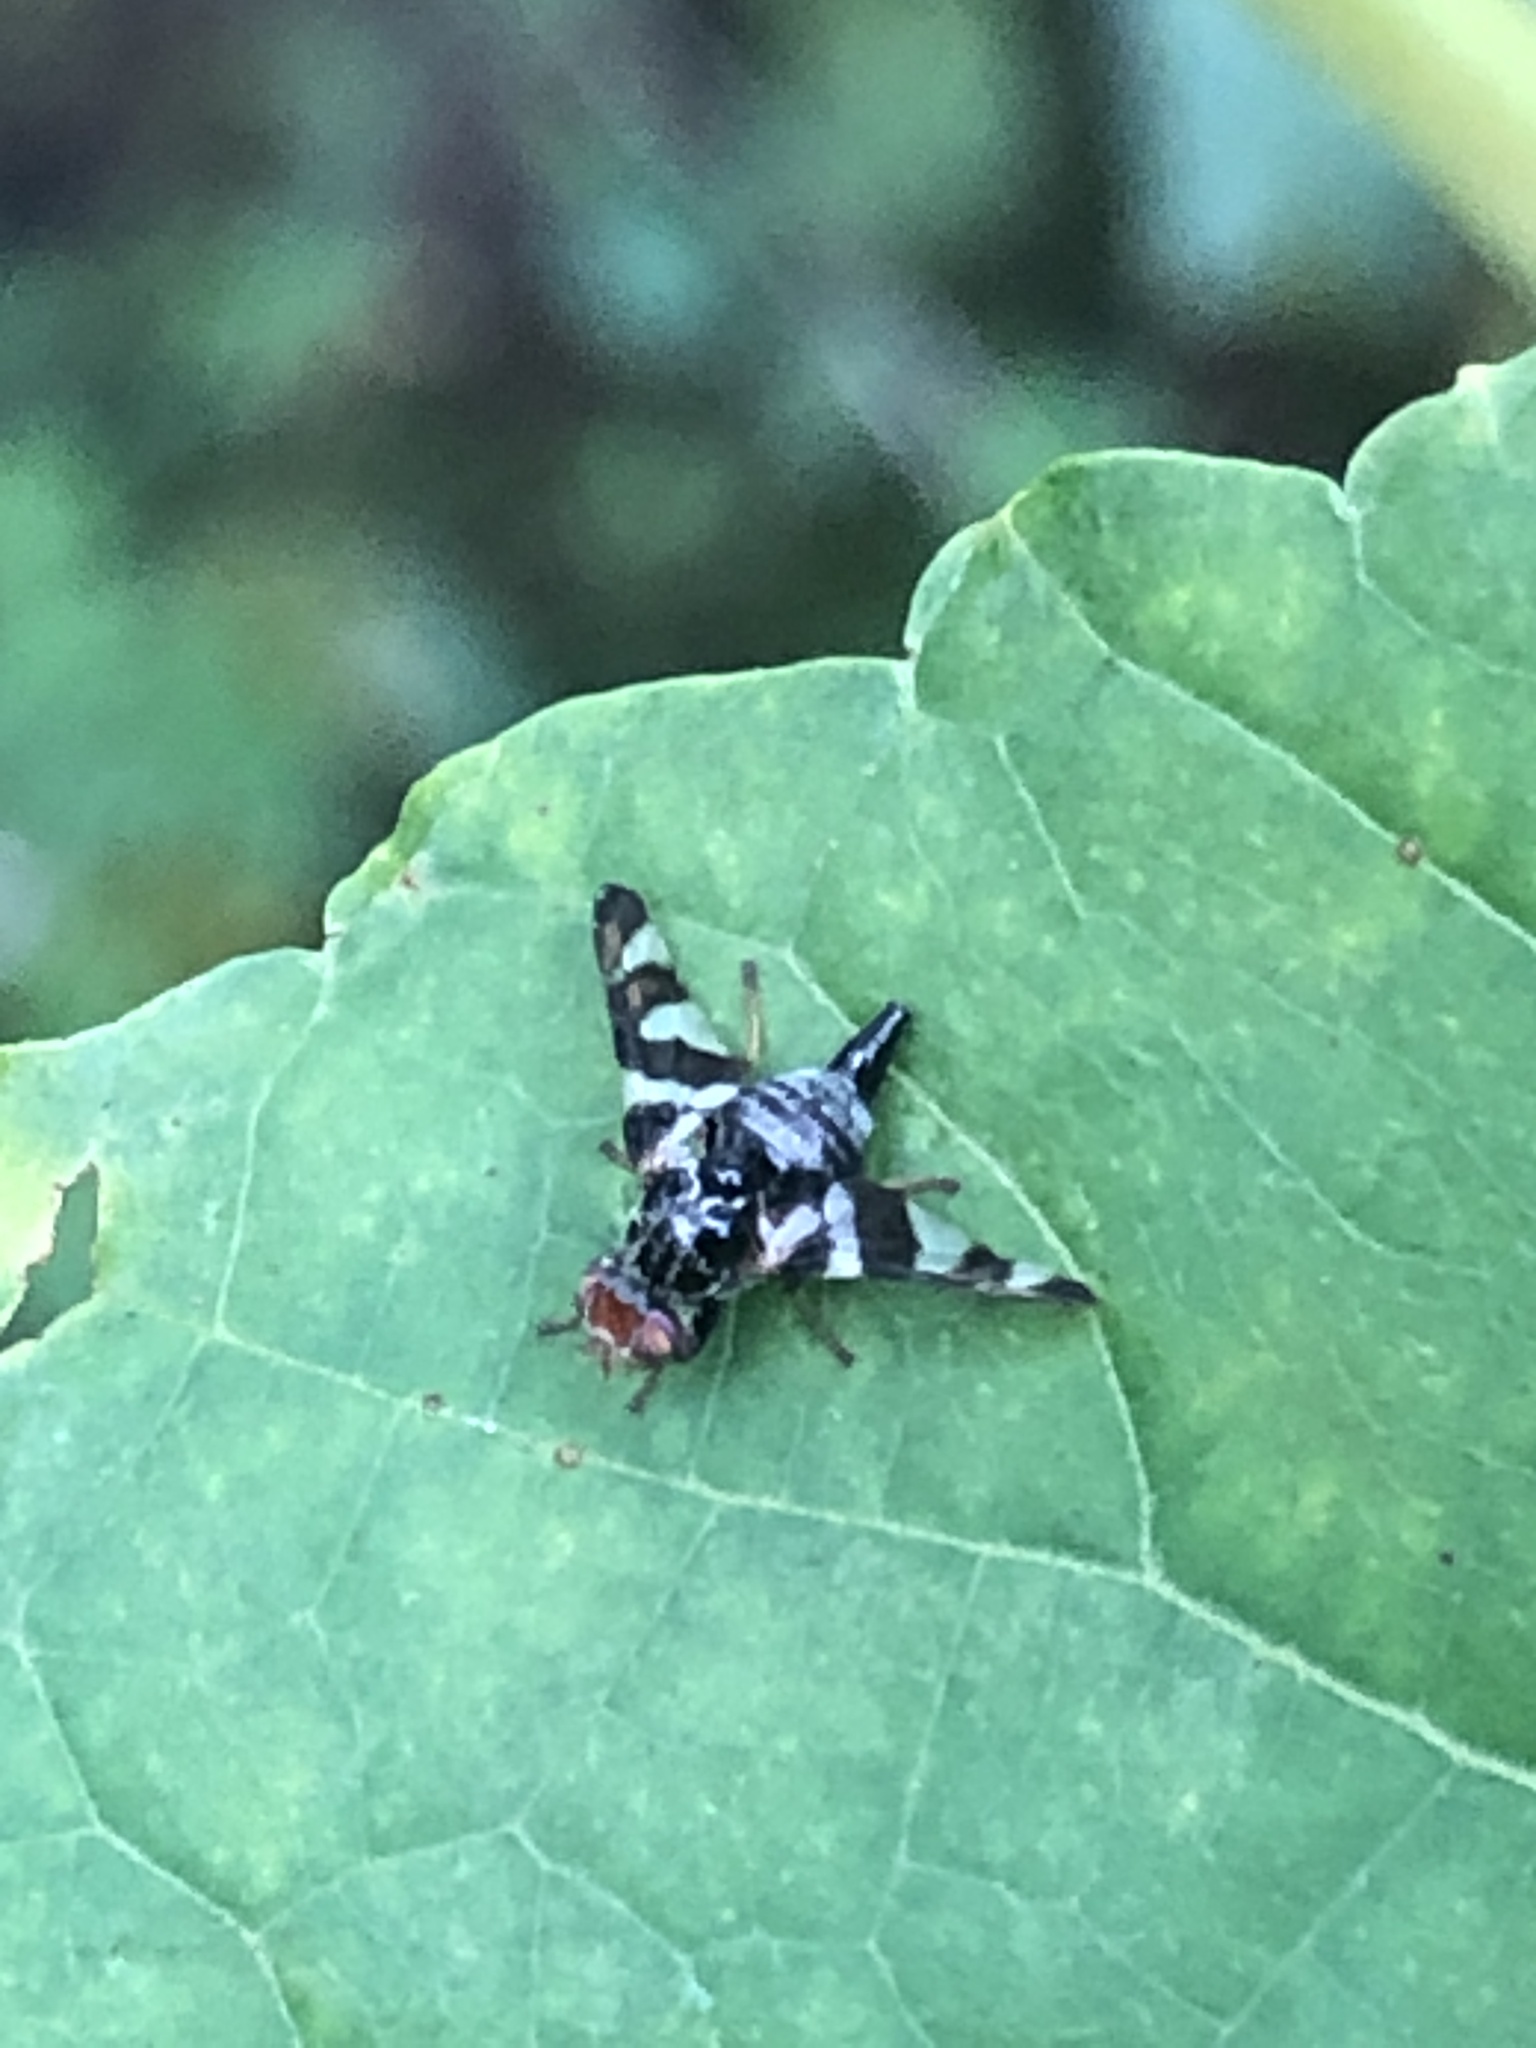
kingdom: Animalia
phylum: Arthropoda
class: Insecta
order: Diptera
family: Tephritidae
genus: Procecidochares
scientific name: Procecidochares atra
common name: Goldenrod brussels sprout gall fly
